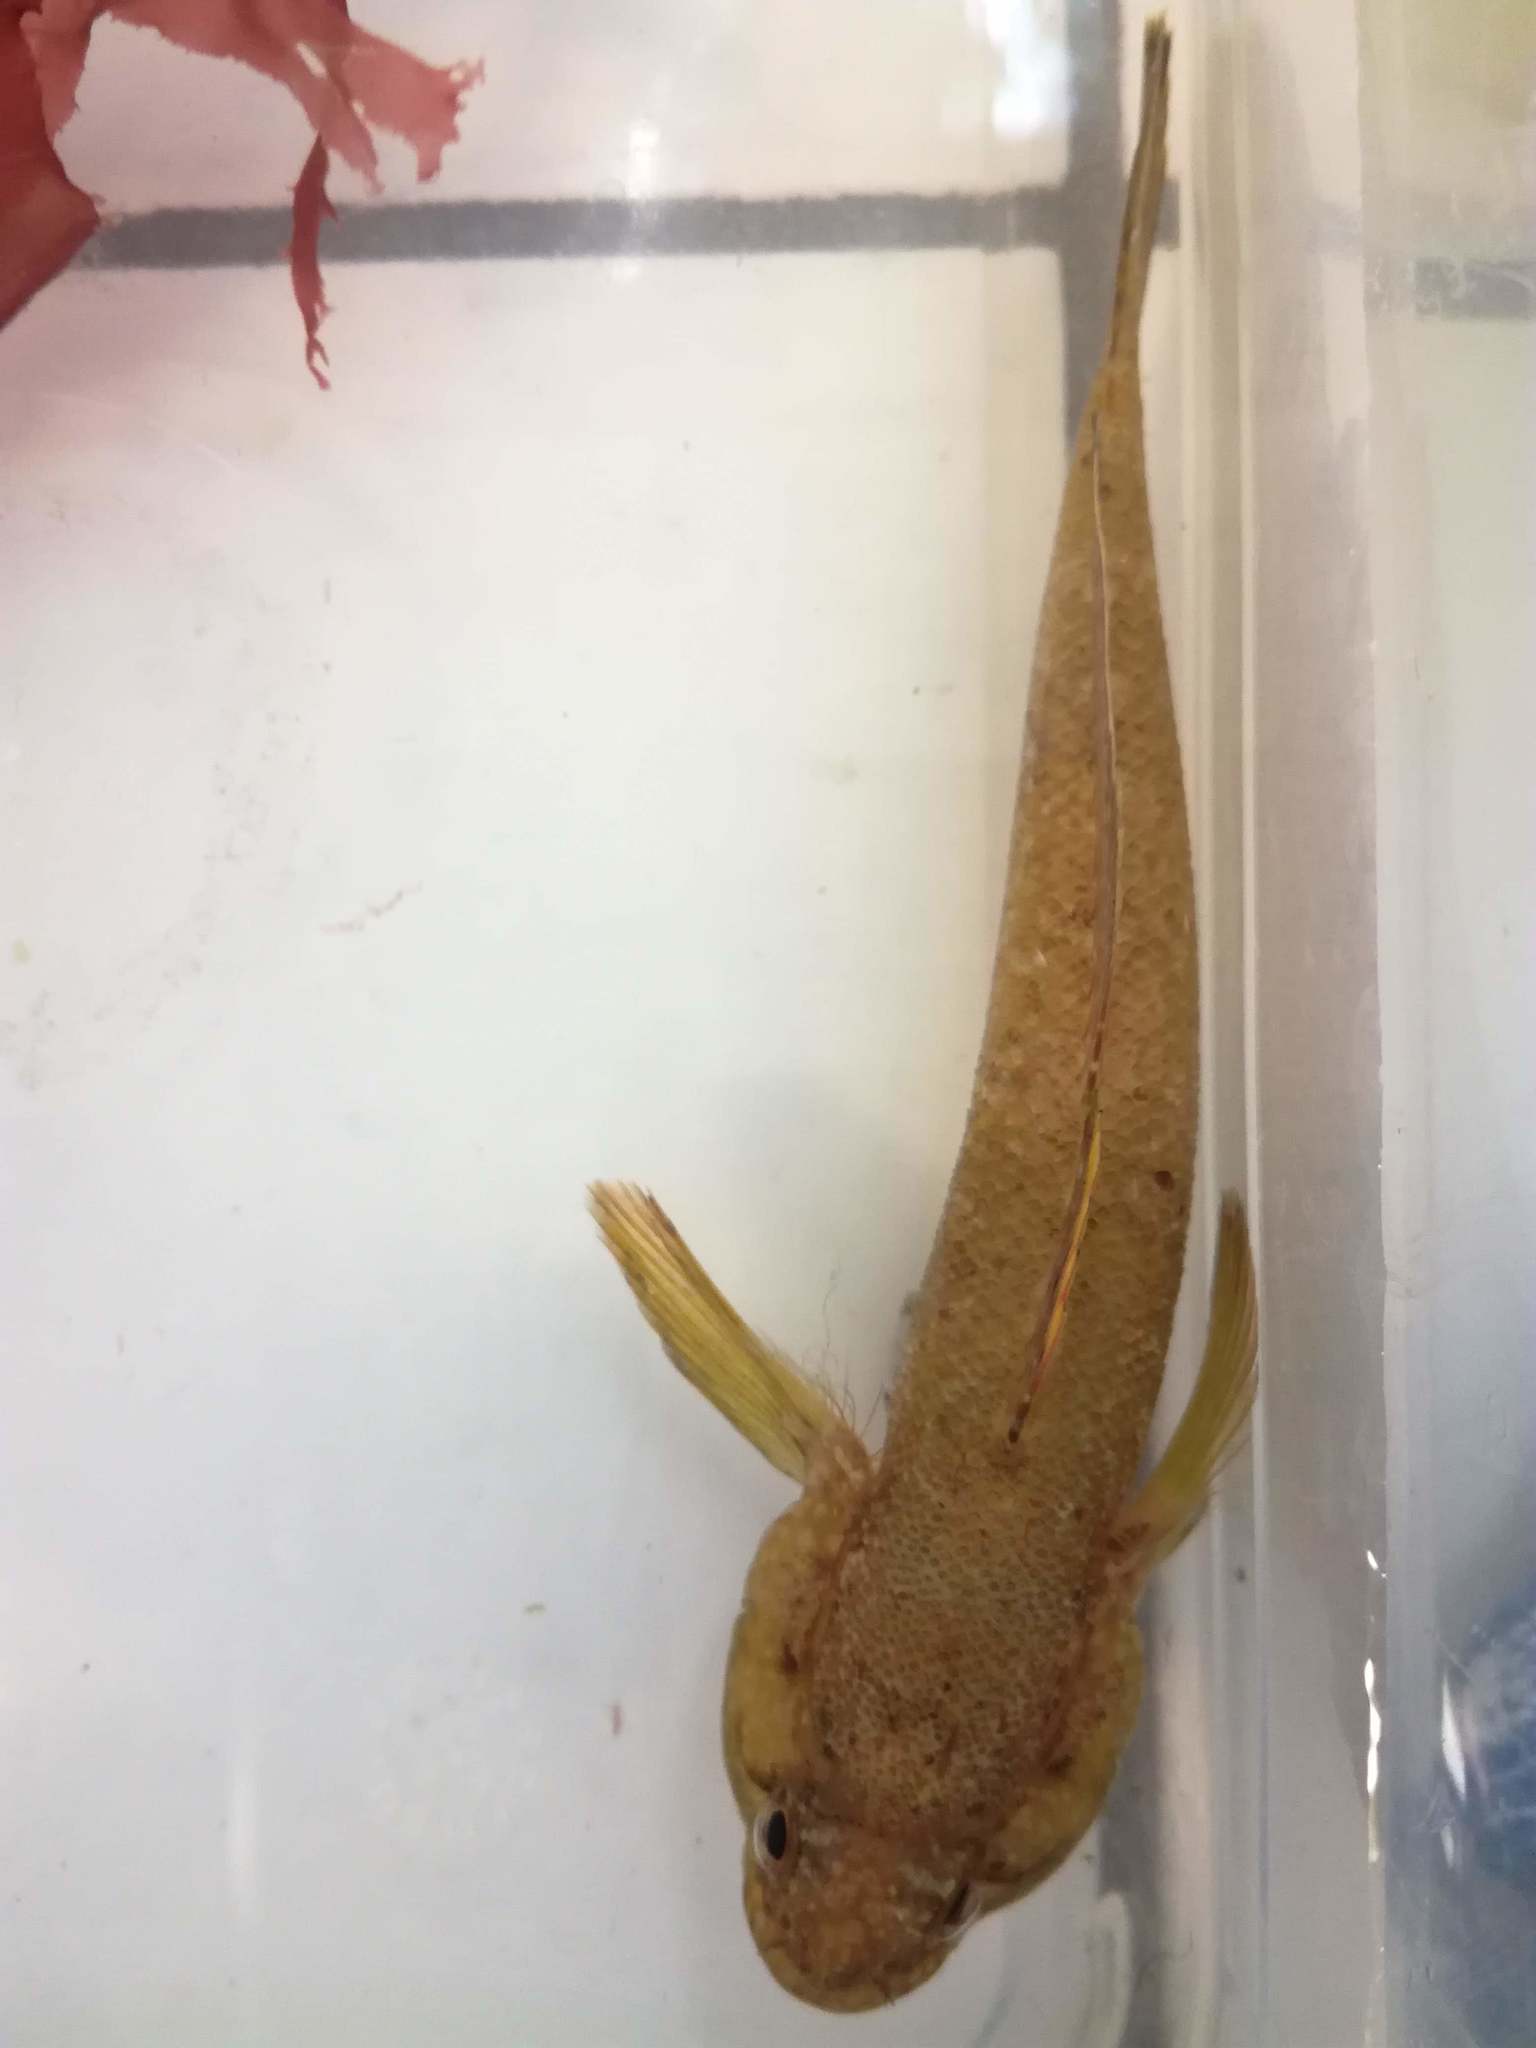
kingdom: Animalia
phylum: Chordata
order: Perciformes
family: Gobiidae
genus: Gobius
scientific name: Gobius paganellus
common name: Rock goby
